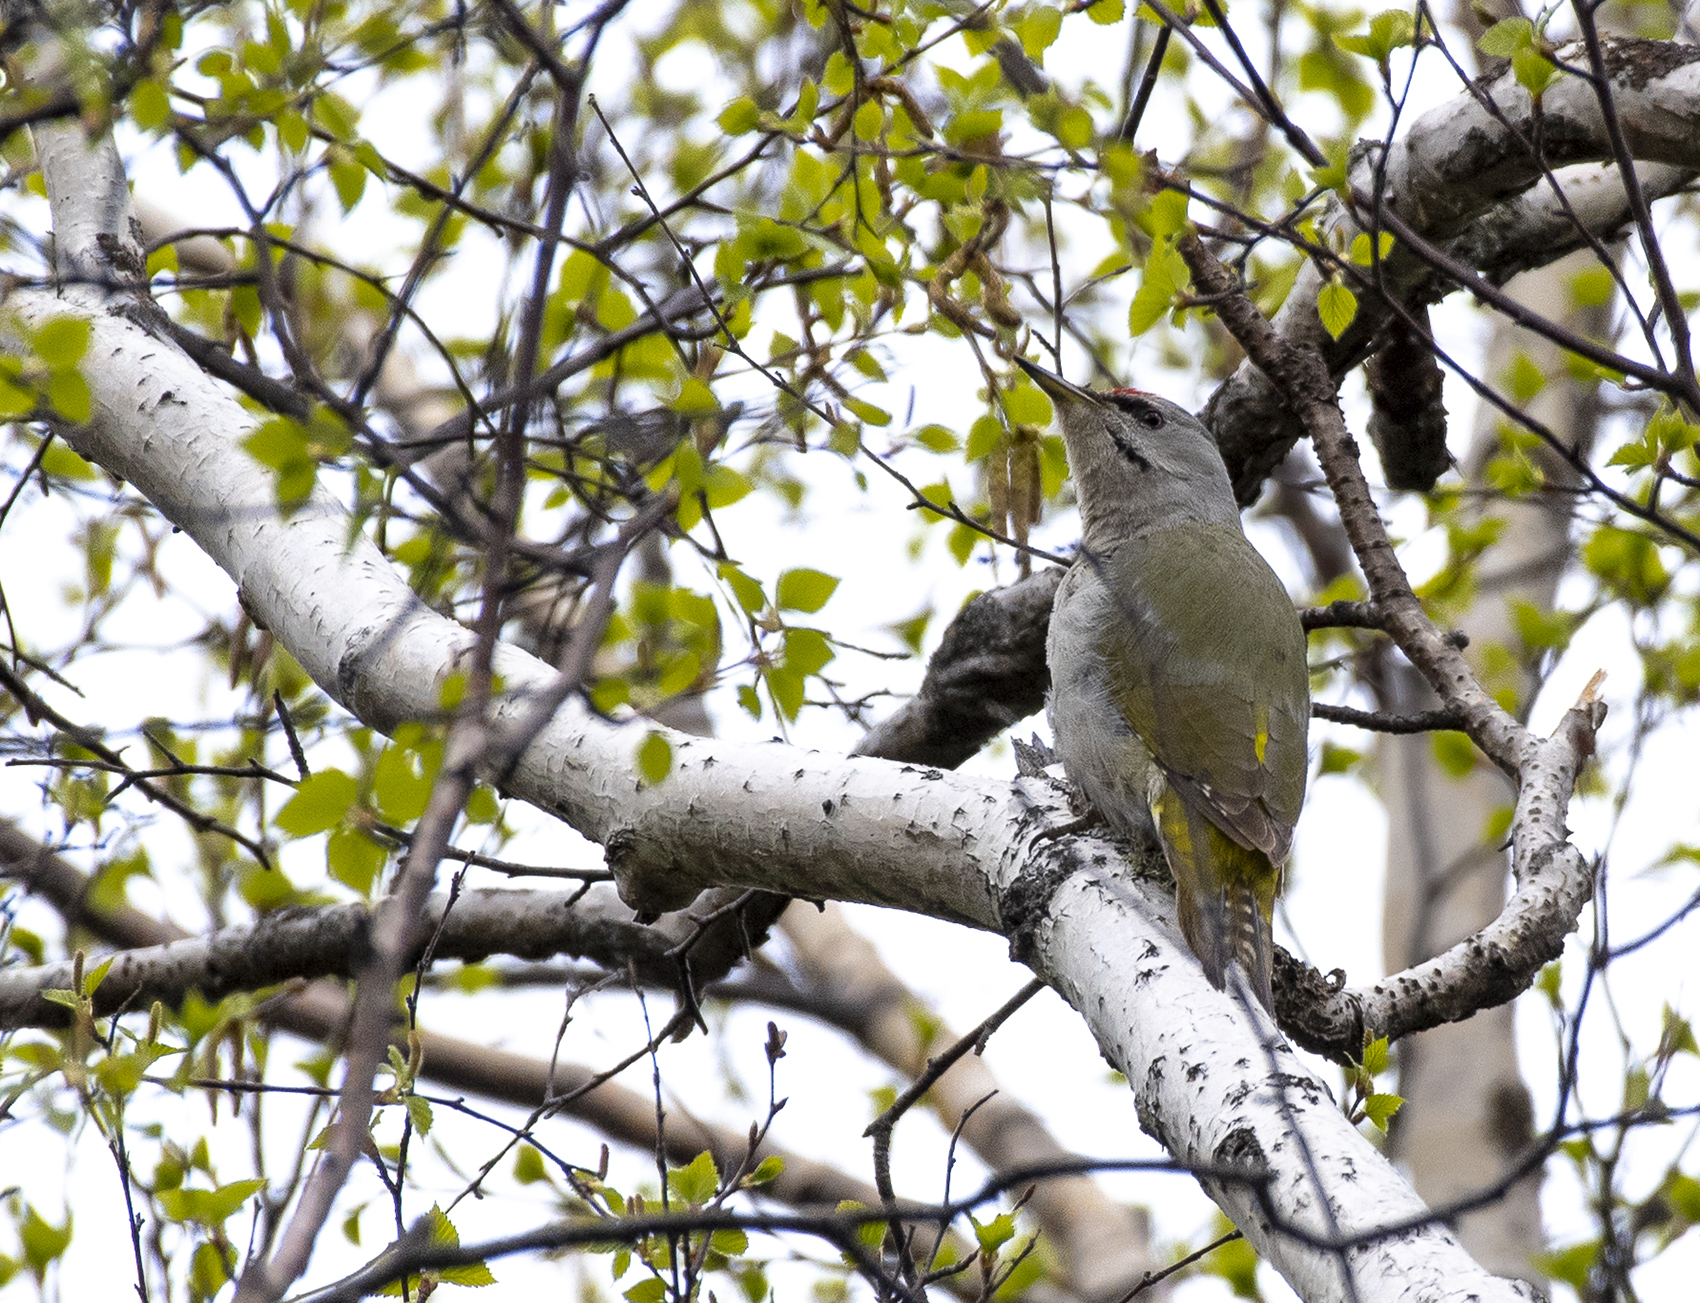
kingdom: Animalia
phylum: Chordata
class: Aves
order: Piciformes
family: Picidae
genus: Picus
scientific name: Picus canus
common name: Grey-headed woodpecker
